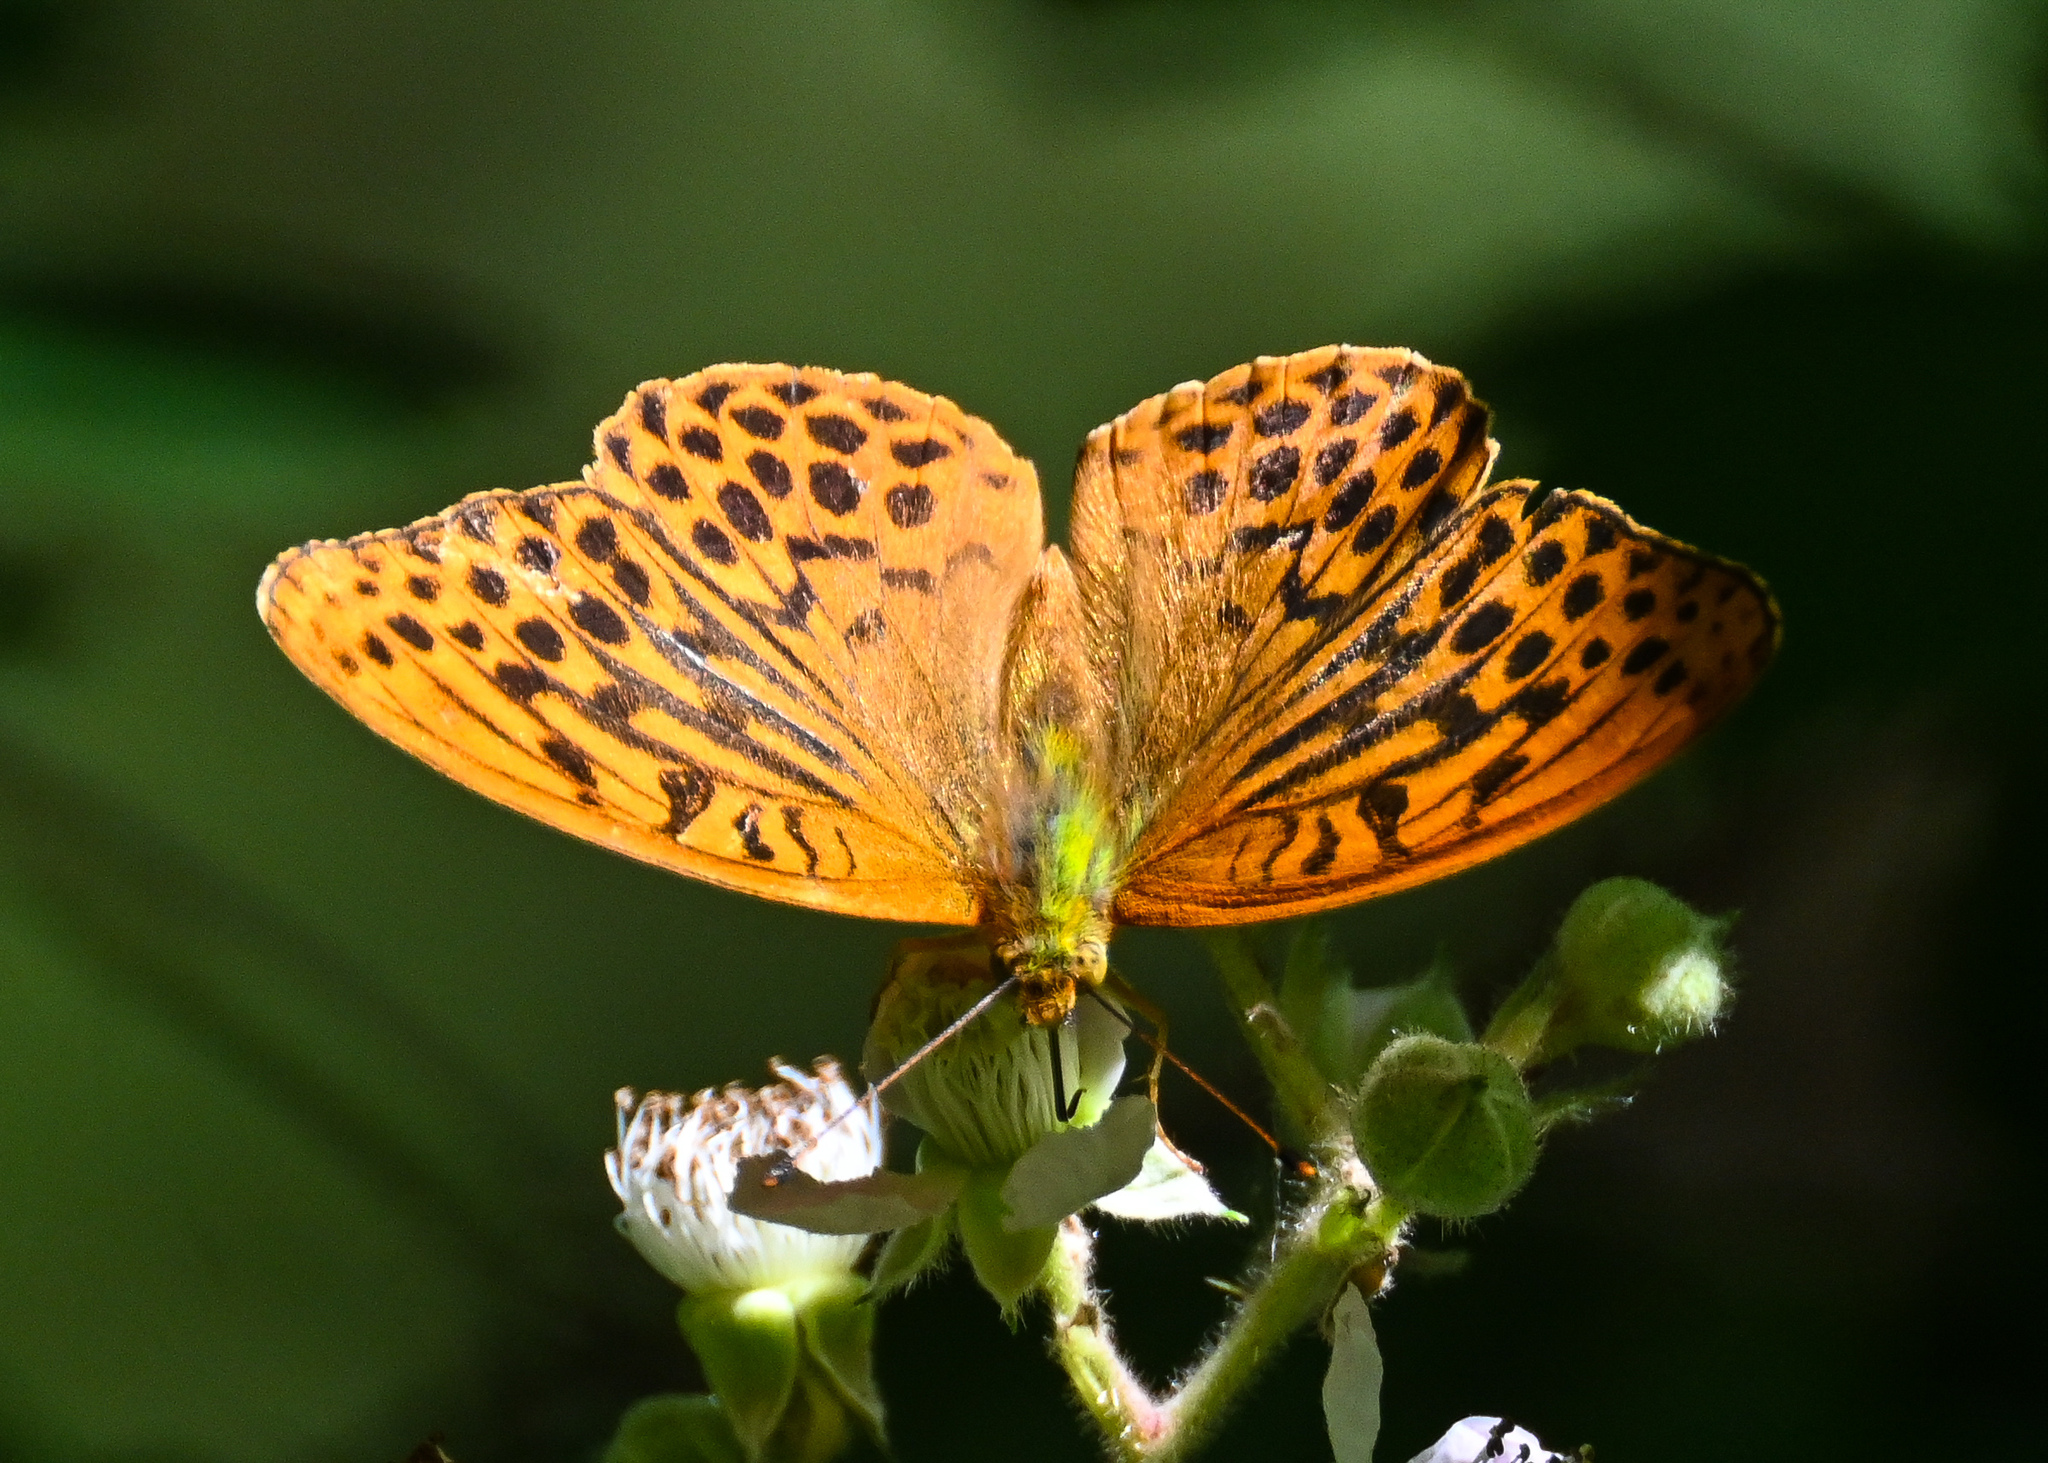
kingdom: Animalia
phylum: Arthropoda
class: Insecta
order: Lepidoptera
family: Nymphalidae
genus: Argynnis
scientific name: Argynnis paphia
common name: Silver-washed fritillary
